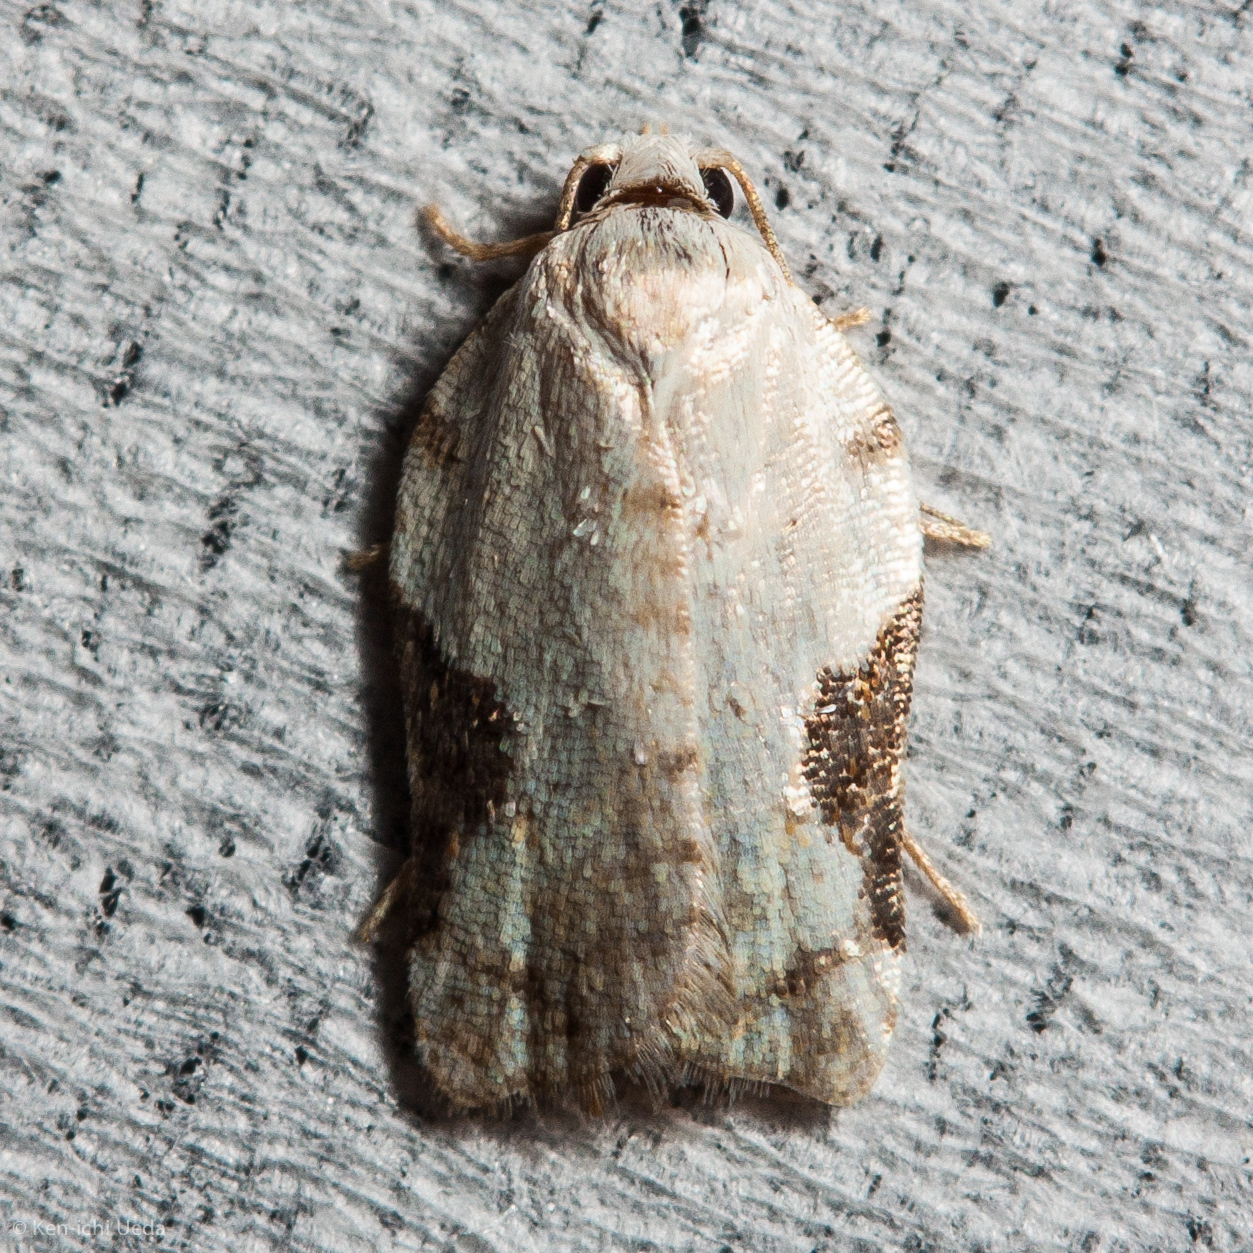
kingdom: Animalia
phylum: Arthropoda
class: Insecta
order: Lepidoptera
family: Tortricidae
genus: Acleris
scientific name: Acleris subnivana
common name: Bent-winged acleris moth
